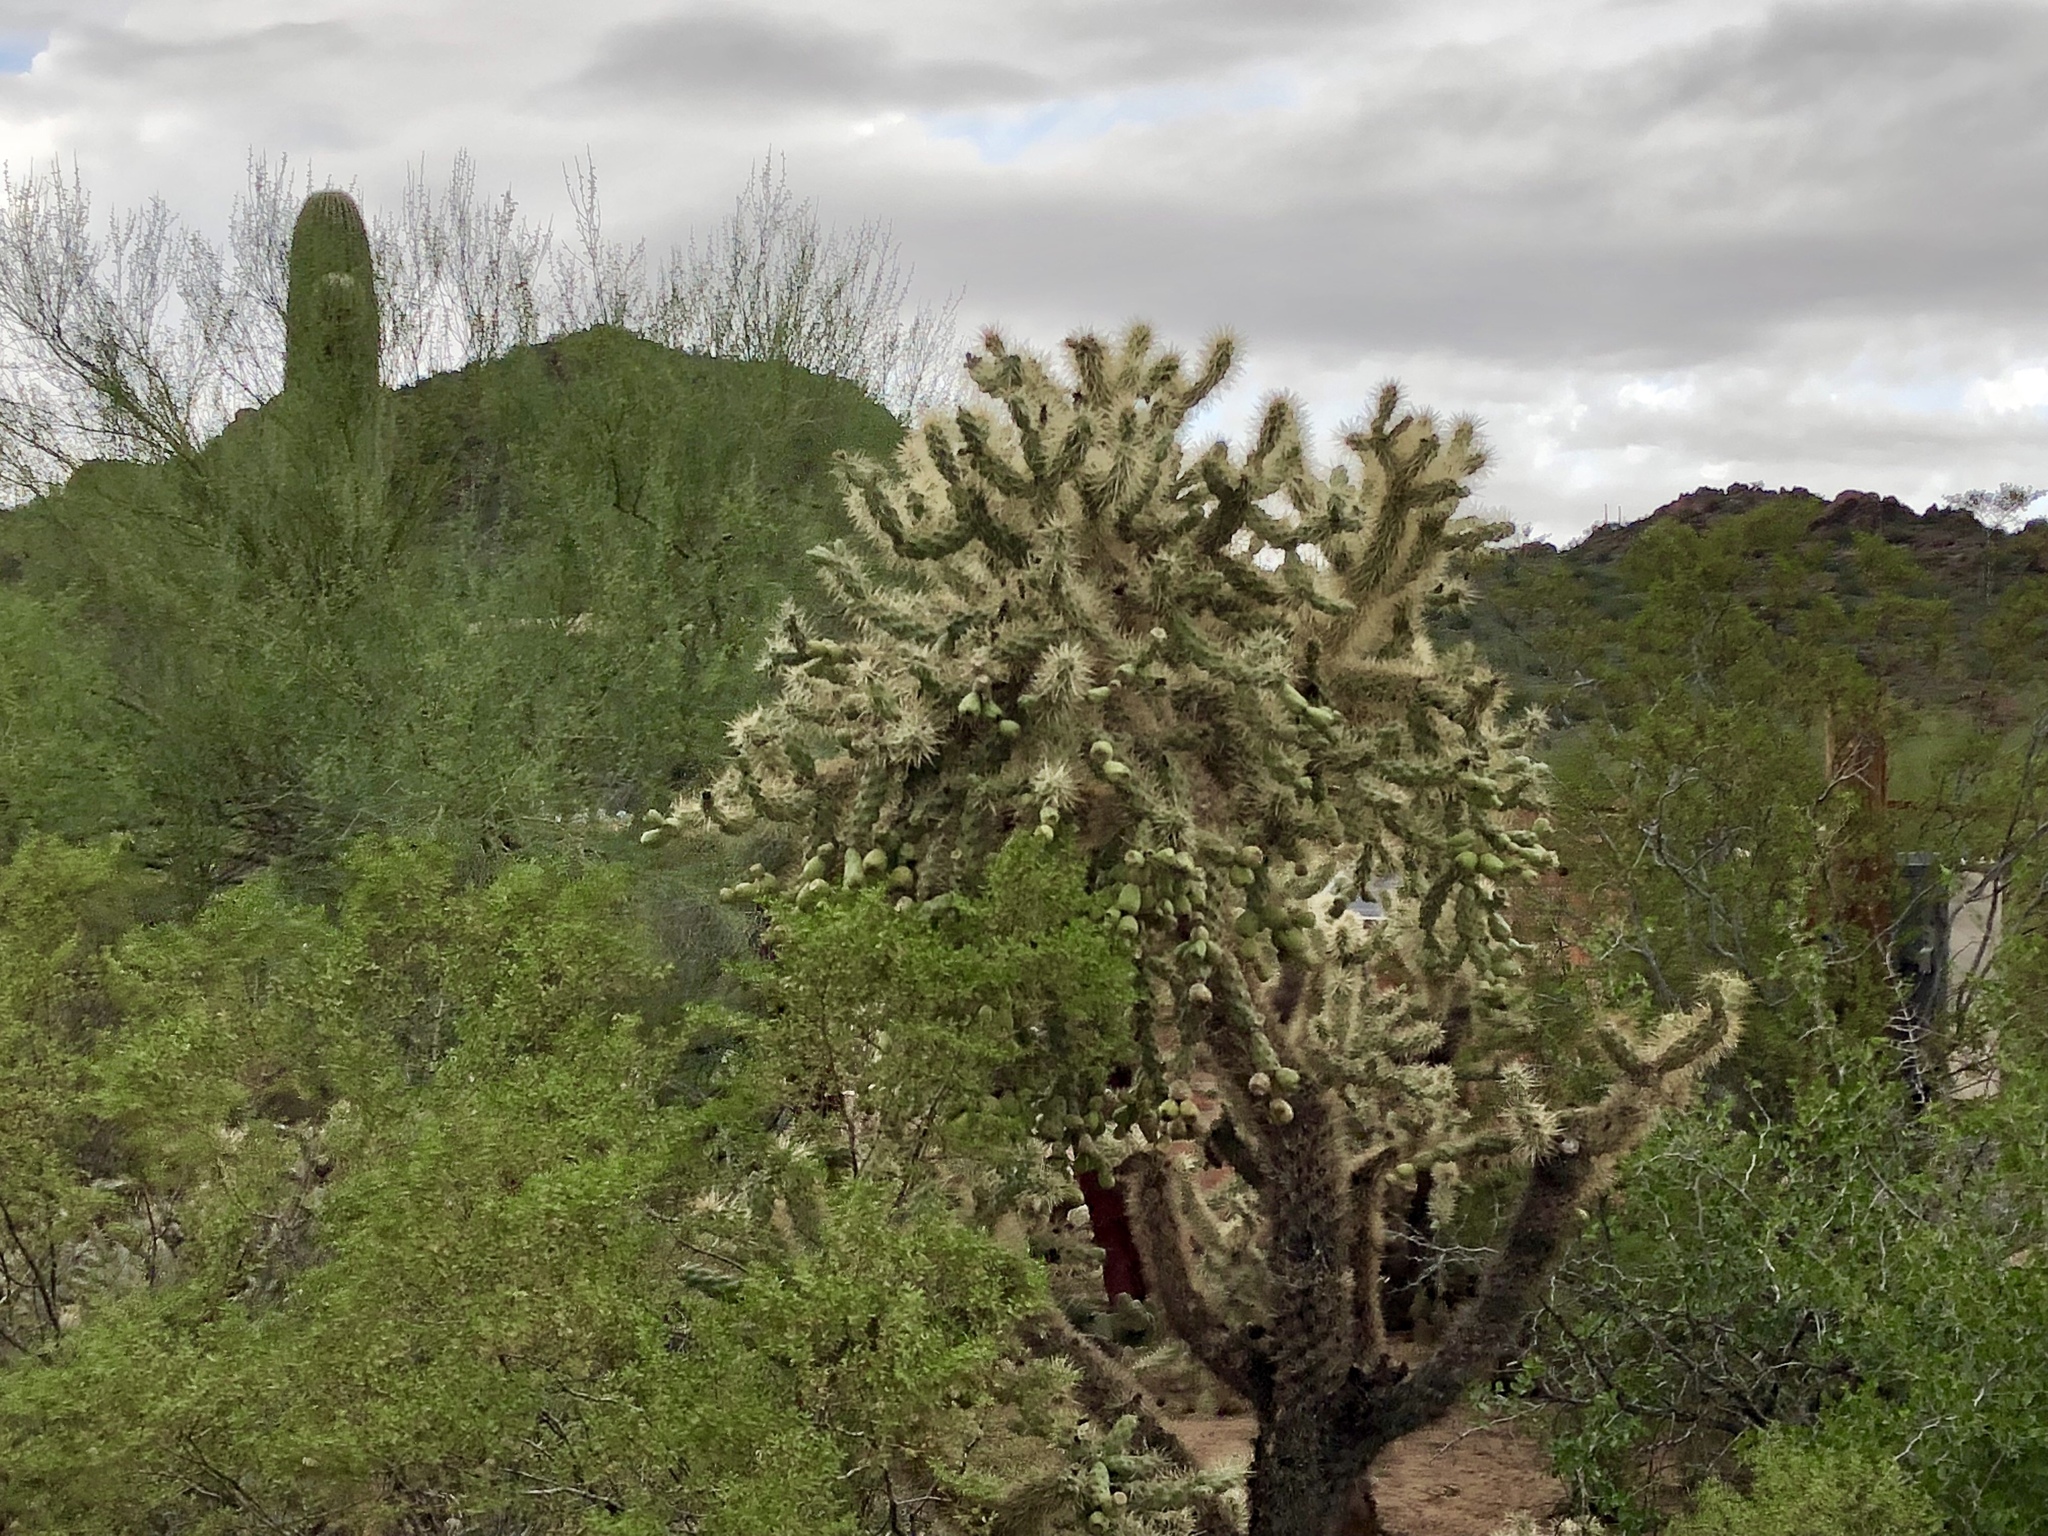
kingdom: Plantae
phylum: Tracheophyta
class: Magnoliopsida
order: Caryophyllales
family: Cactaceae
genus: Cylindropuntia
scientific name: Cylindropuntia fulgida
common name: Jumping cholla
